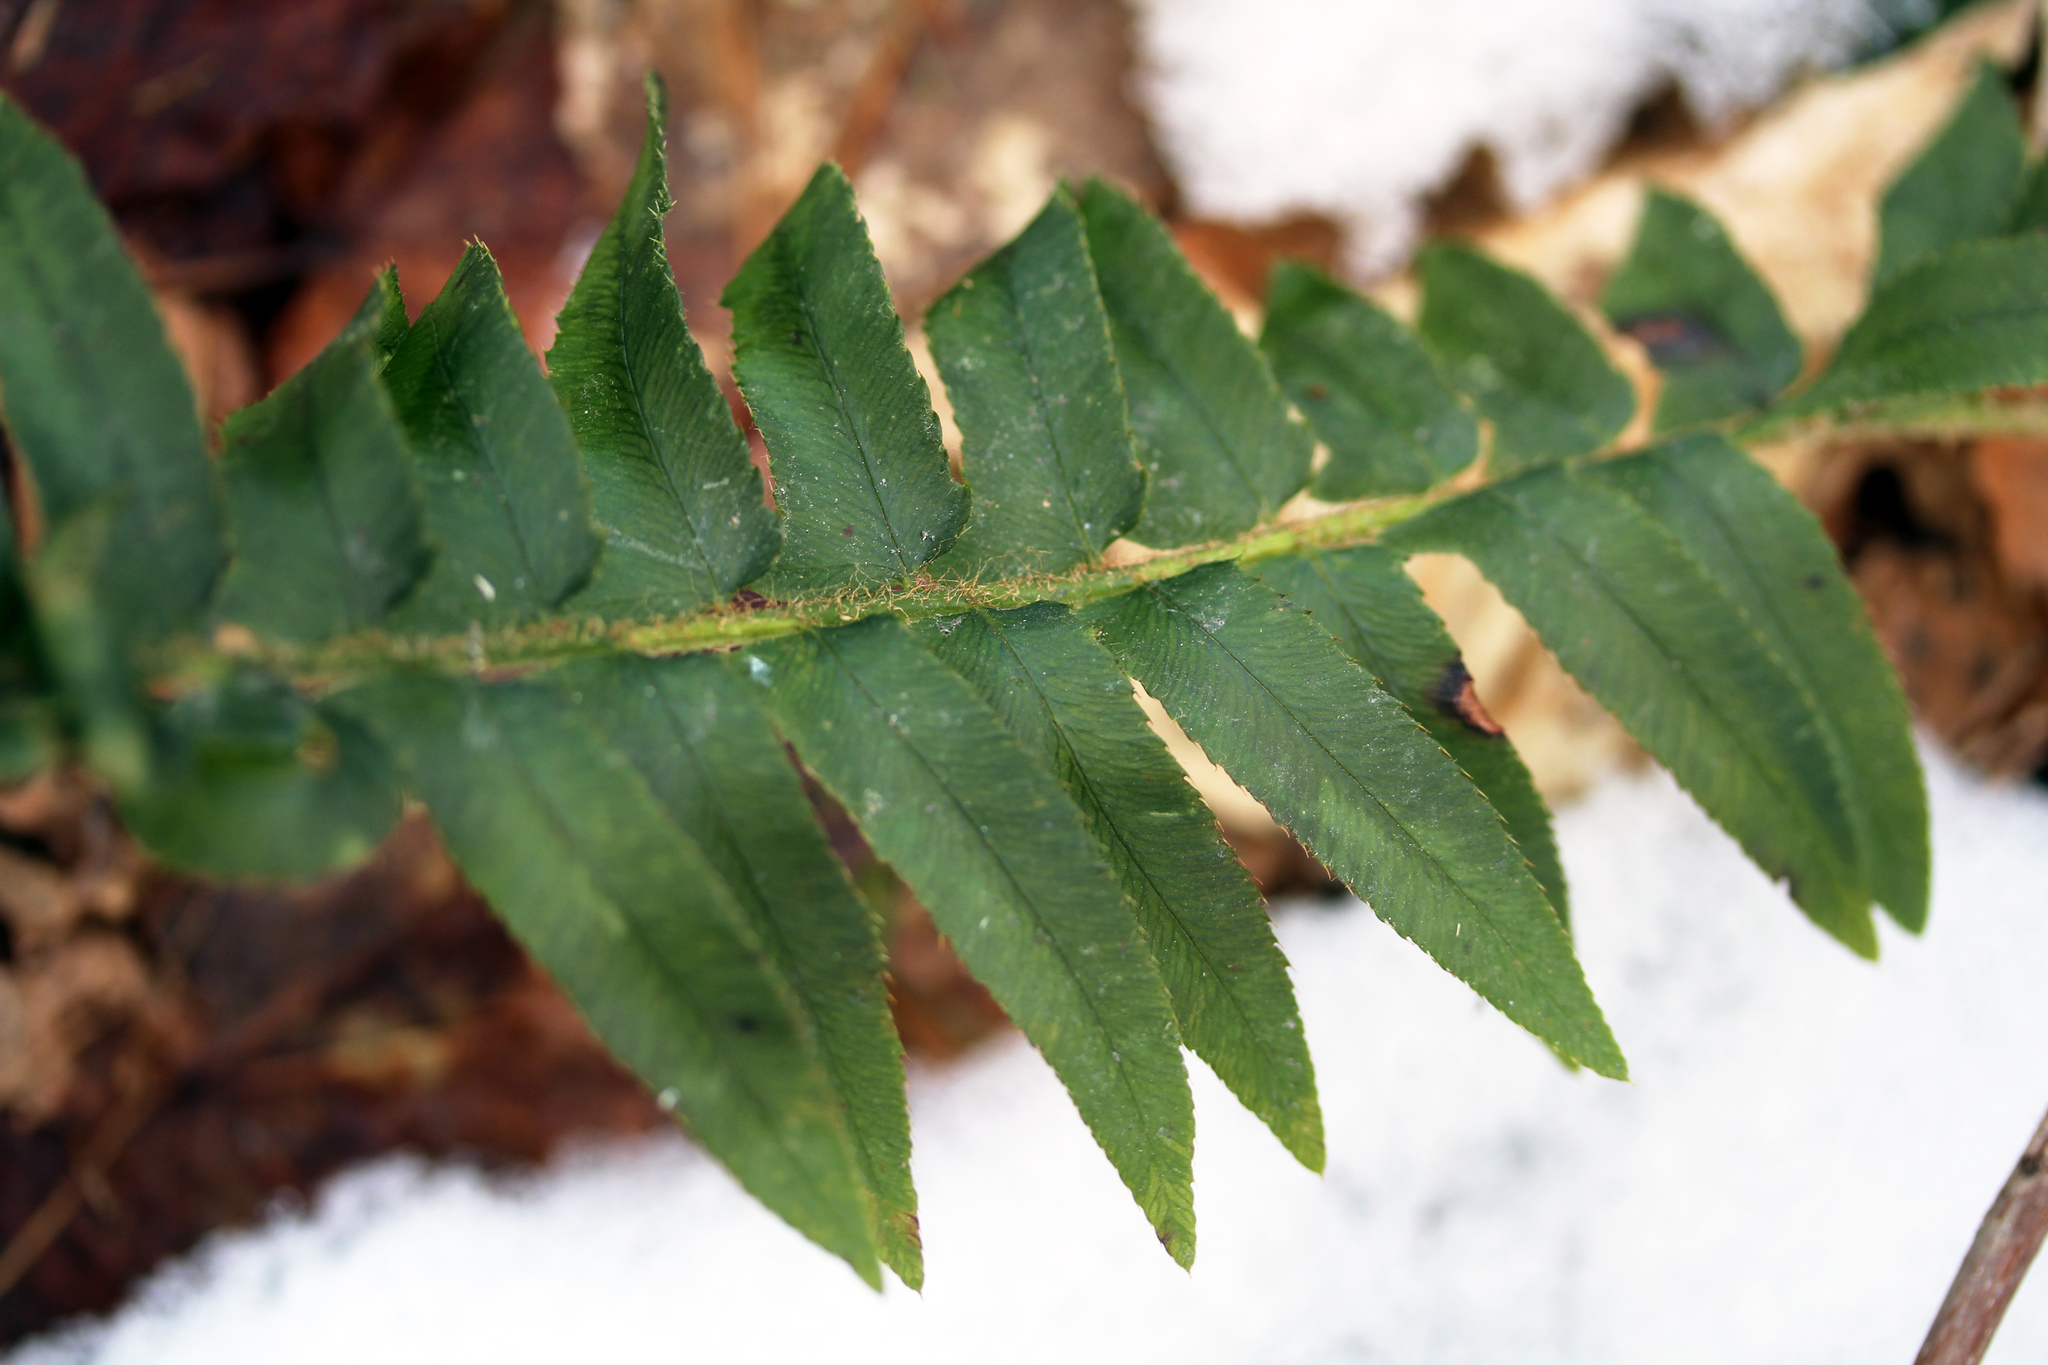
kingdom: Plantae
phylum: Tracheophyta
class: Polypodiopsida
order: Polypodiales
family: Dryopteridaceae
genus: Polystichum
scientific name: Polystichum acrostichoides
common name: Christmas fern
